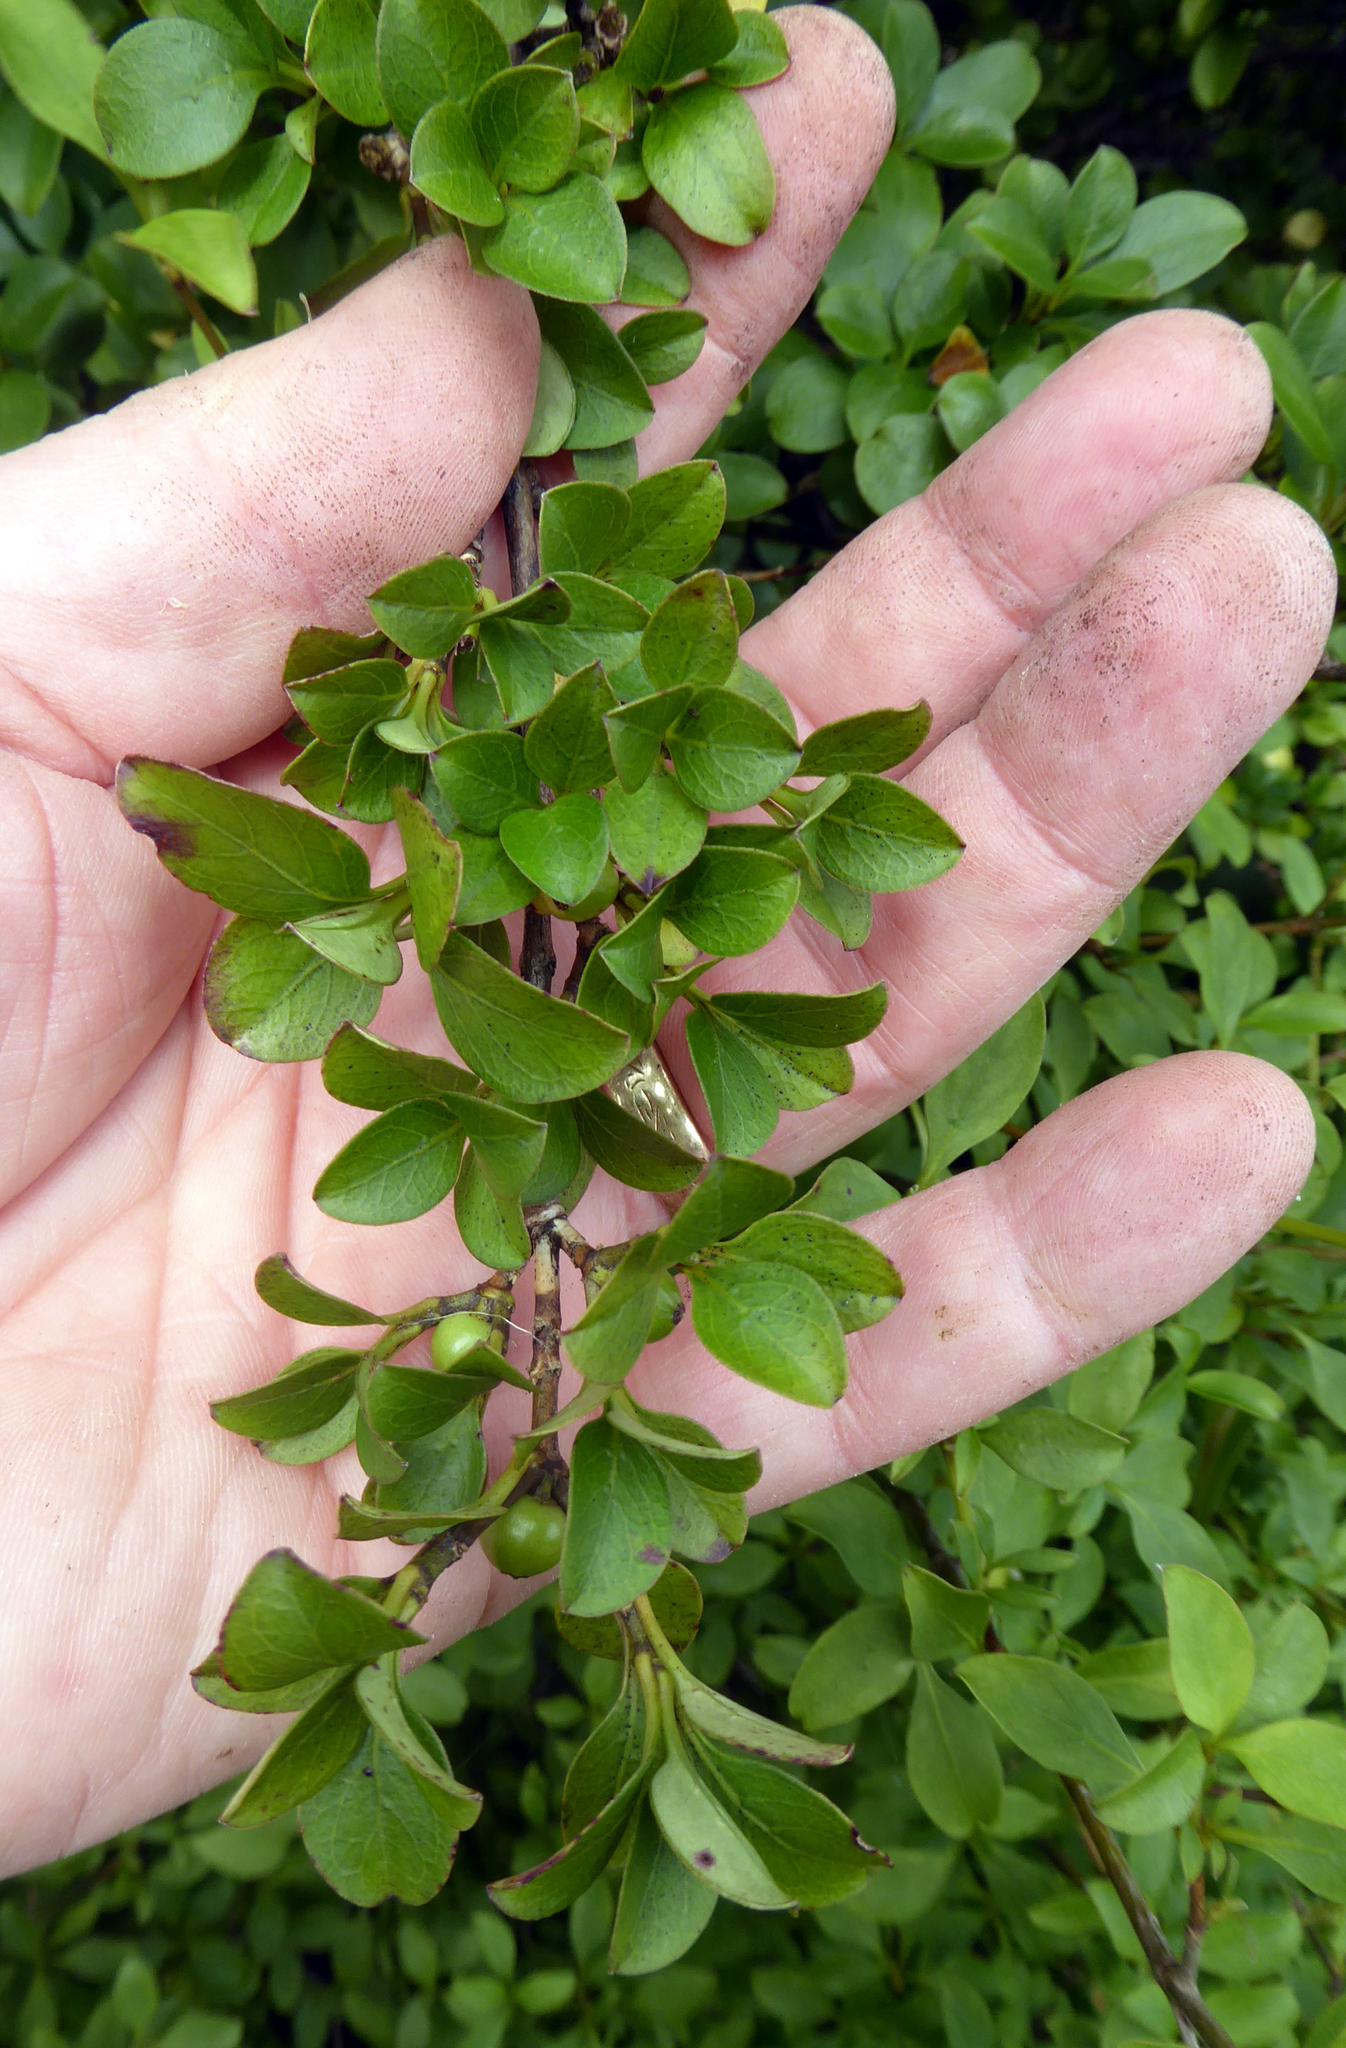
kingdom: Plantae
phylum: Tracheophyta
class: Magnoliopsida
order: Gentianales
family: Rubiaceae
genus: Coprosma
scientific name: Coprosma foetidissima
